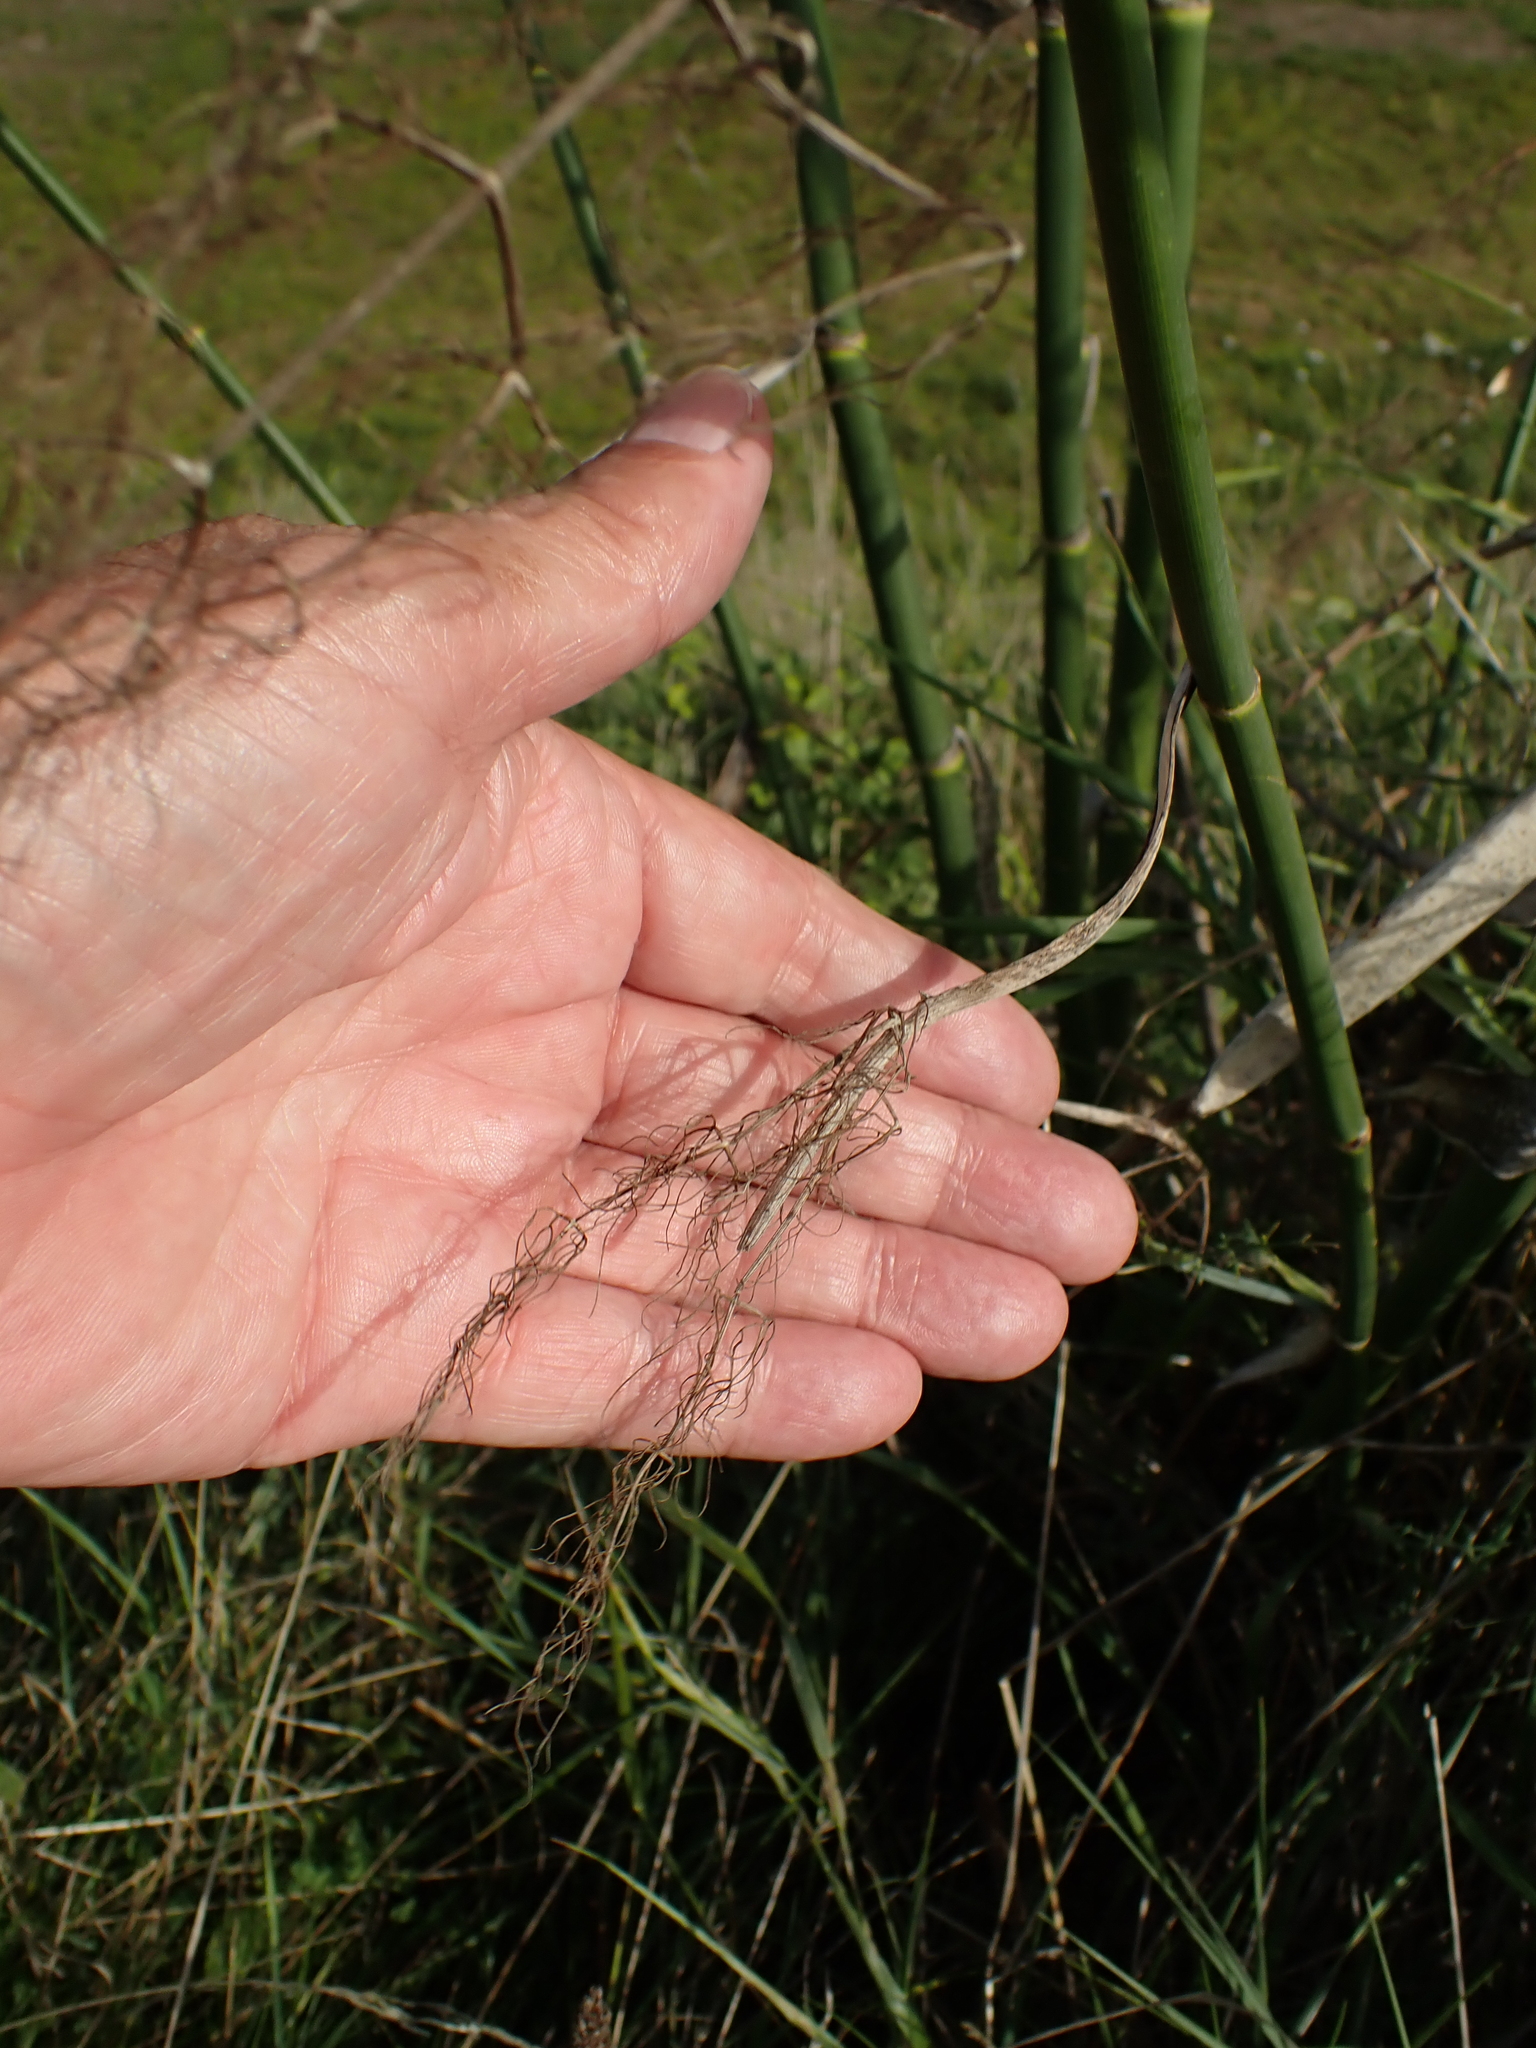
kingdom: Plantae
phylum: Tracheophyta
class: Magnoliopsida
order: Apiales
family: Apiaceae
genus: Foeniculum
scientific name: Foeniculum vulgare
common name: Fennel
